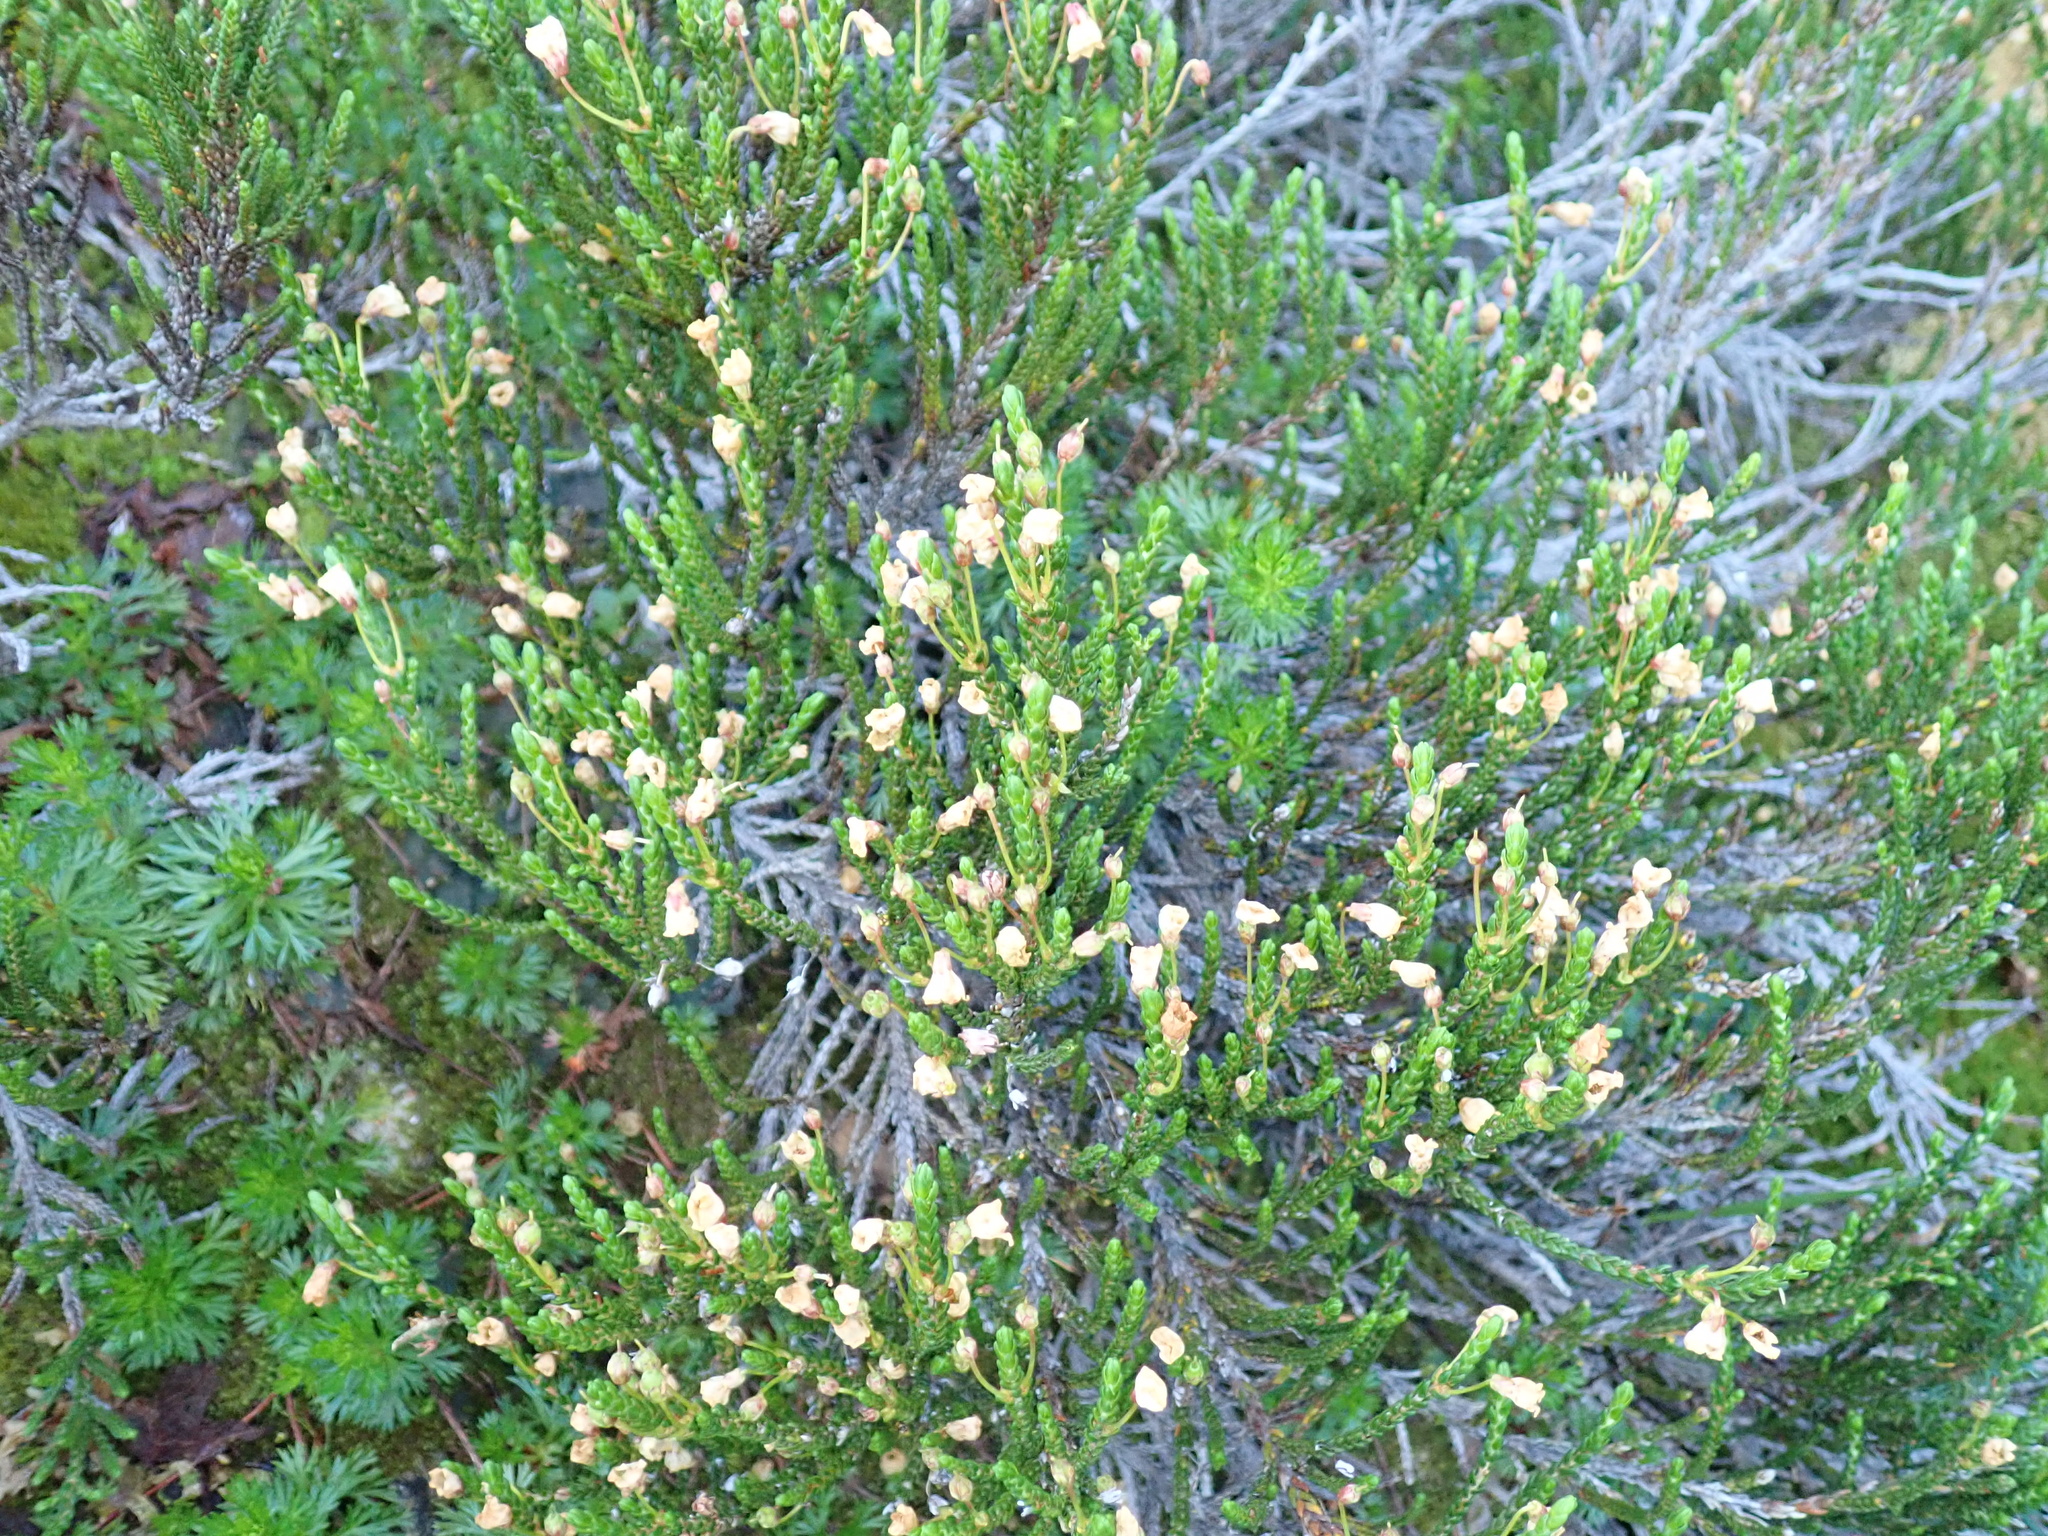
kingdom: Plantae
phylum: Tracheophyta
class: Magnoliopsida
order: Ericales
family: Ericaceae
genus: Cassiope
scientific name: Cassiope mertensiana
